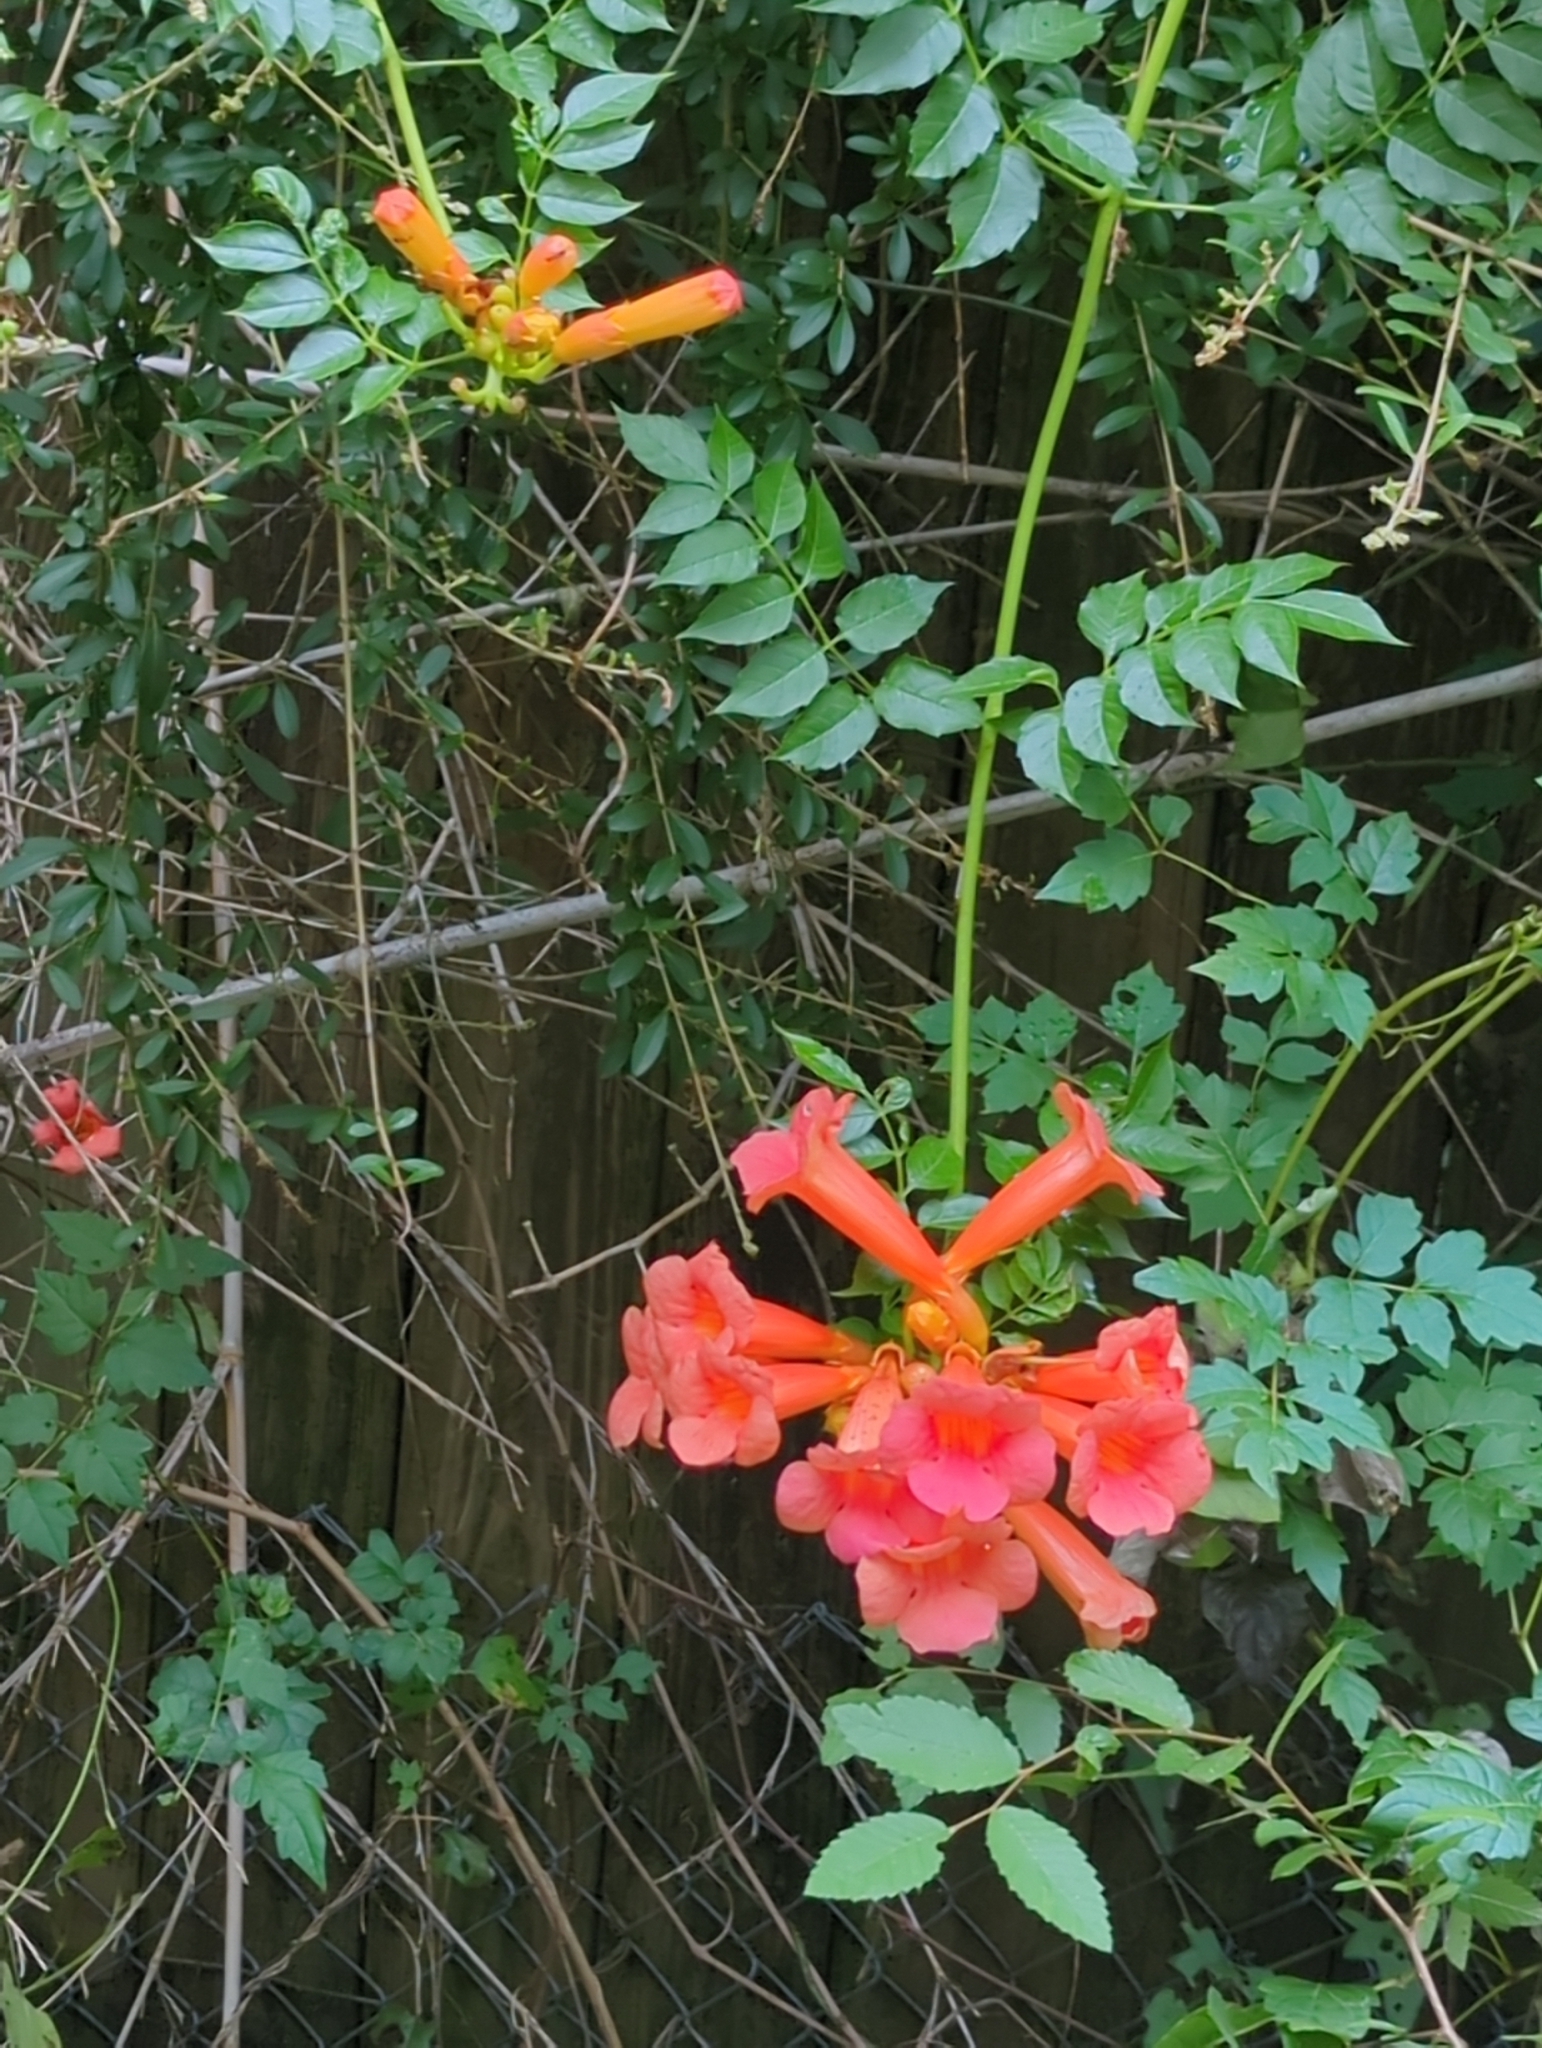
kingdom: Plantae
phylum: Tracheophyta
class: Magnoliopsida
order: Lamiales
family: Bignoniaceae
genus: Campsis
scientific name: Campsis radicans
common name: Trumpet-creeper
